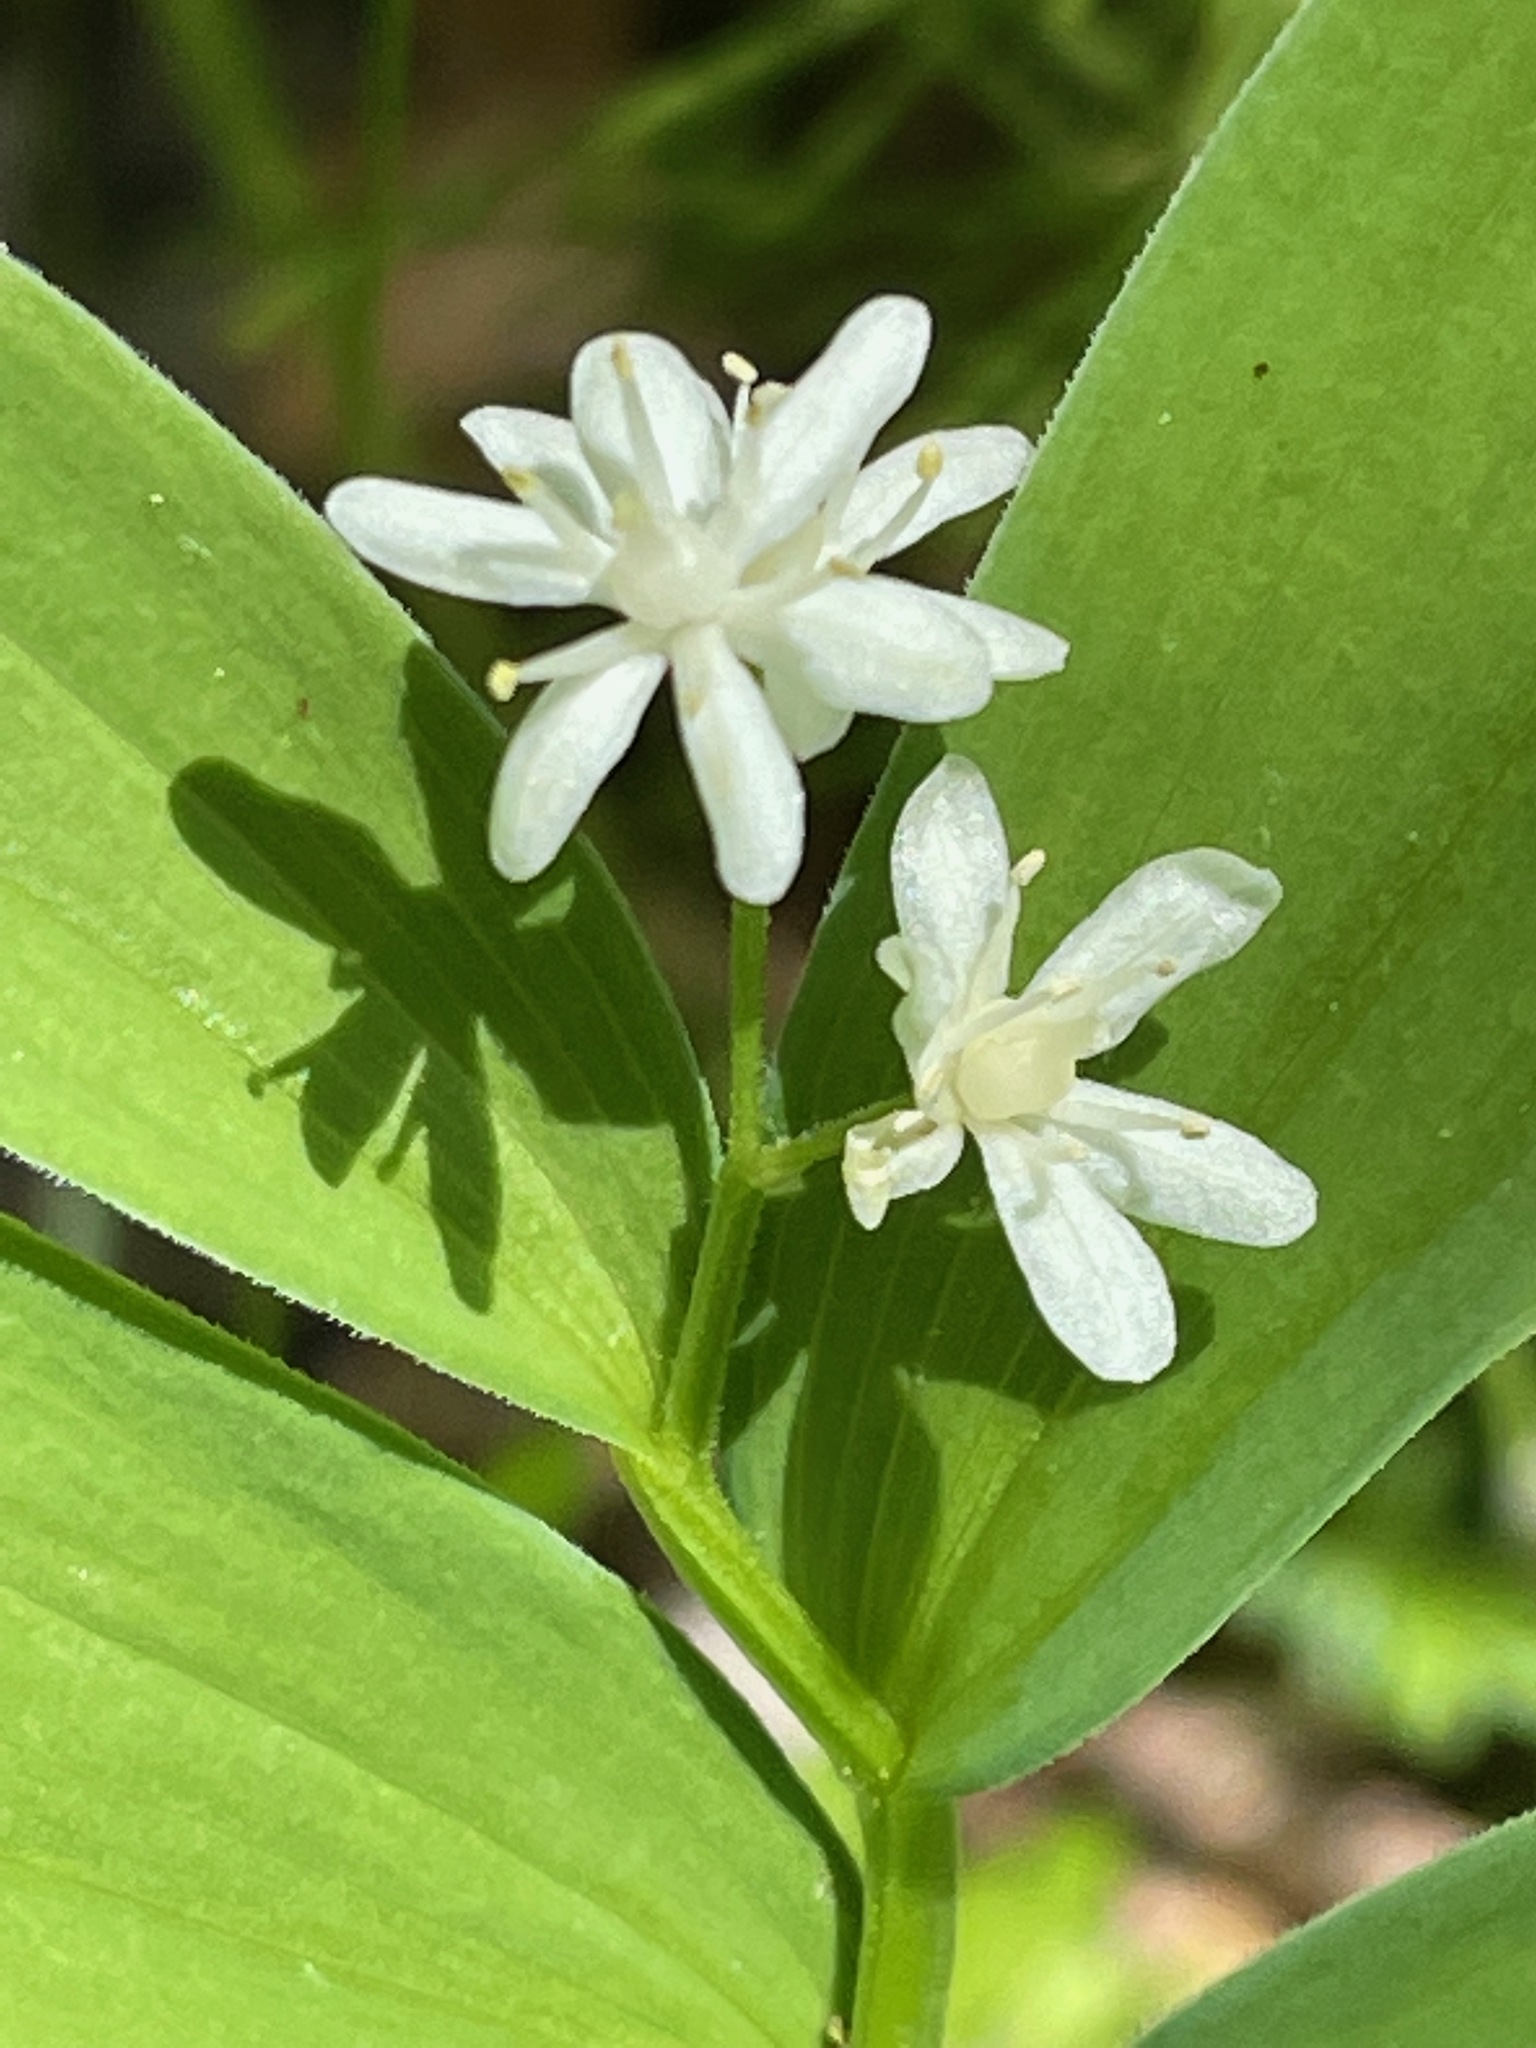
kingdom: Plantae
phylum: Tracheophyta
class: Liliopsida
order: Asparagales
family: Asparagaceae
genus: Maianthemum
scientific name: Maianthemum stellatum
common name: Little false solomon's seal
